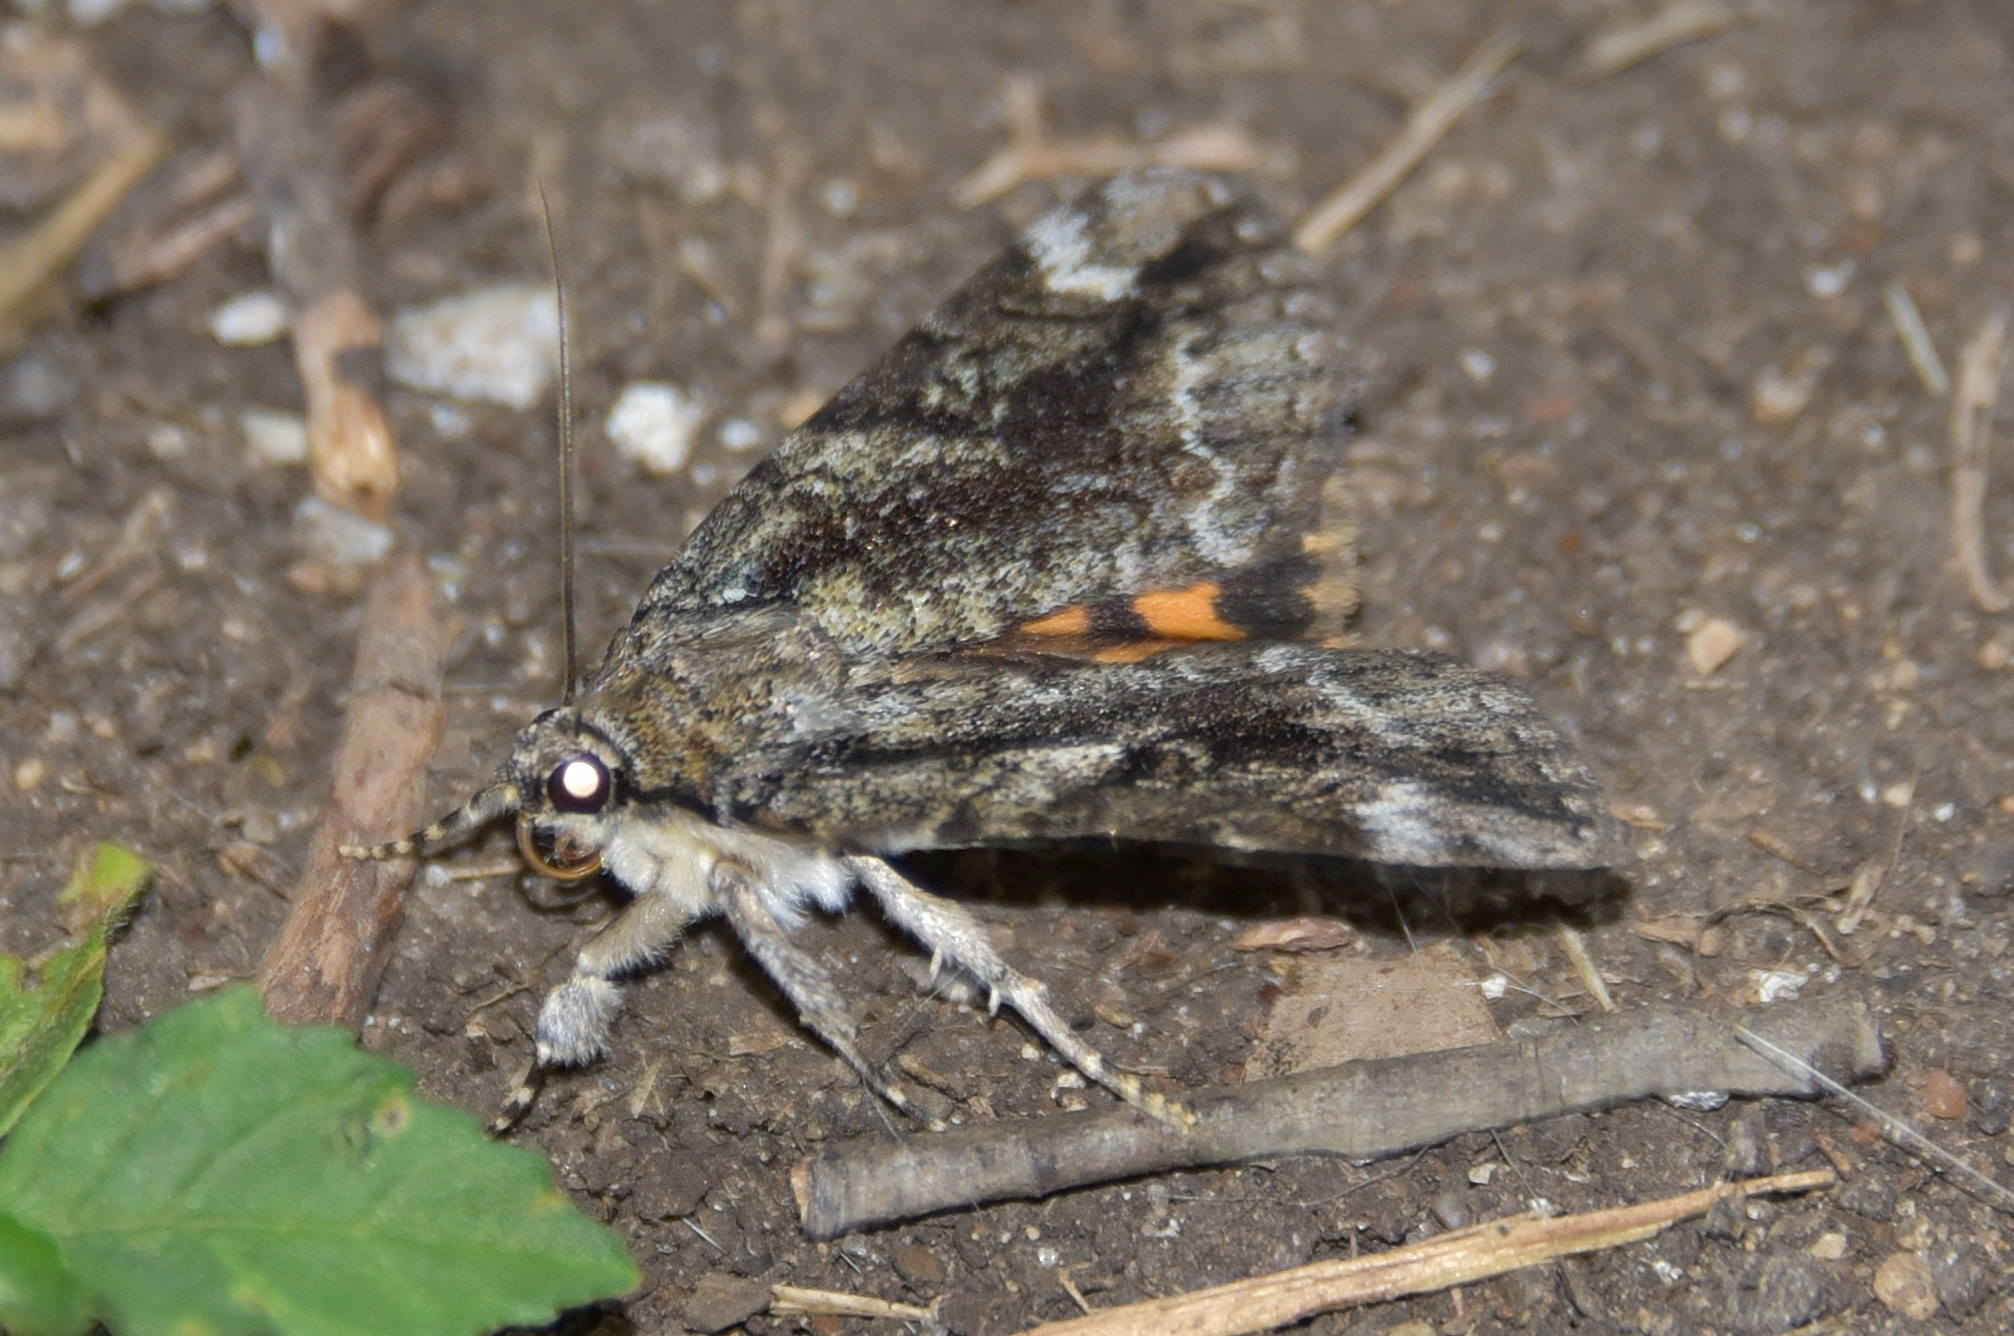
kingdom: Animalia
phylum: Arthropoda
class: Insecta
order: Lepidoptera
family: Erebidae
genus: Catocala
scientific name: Catocala micronympha
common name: Little nymph underwing
